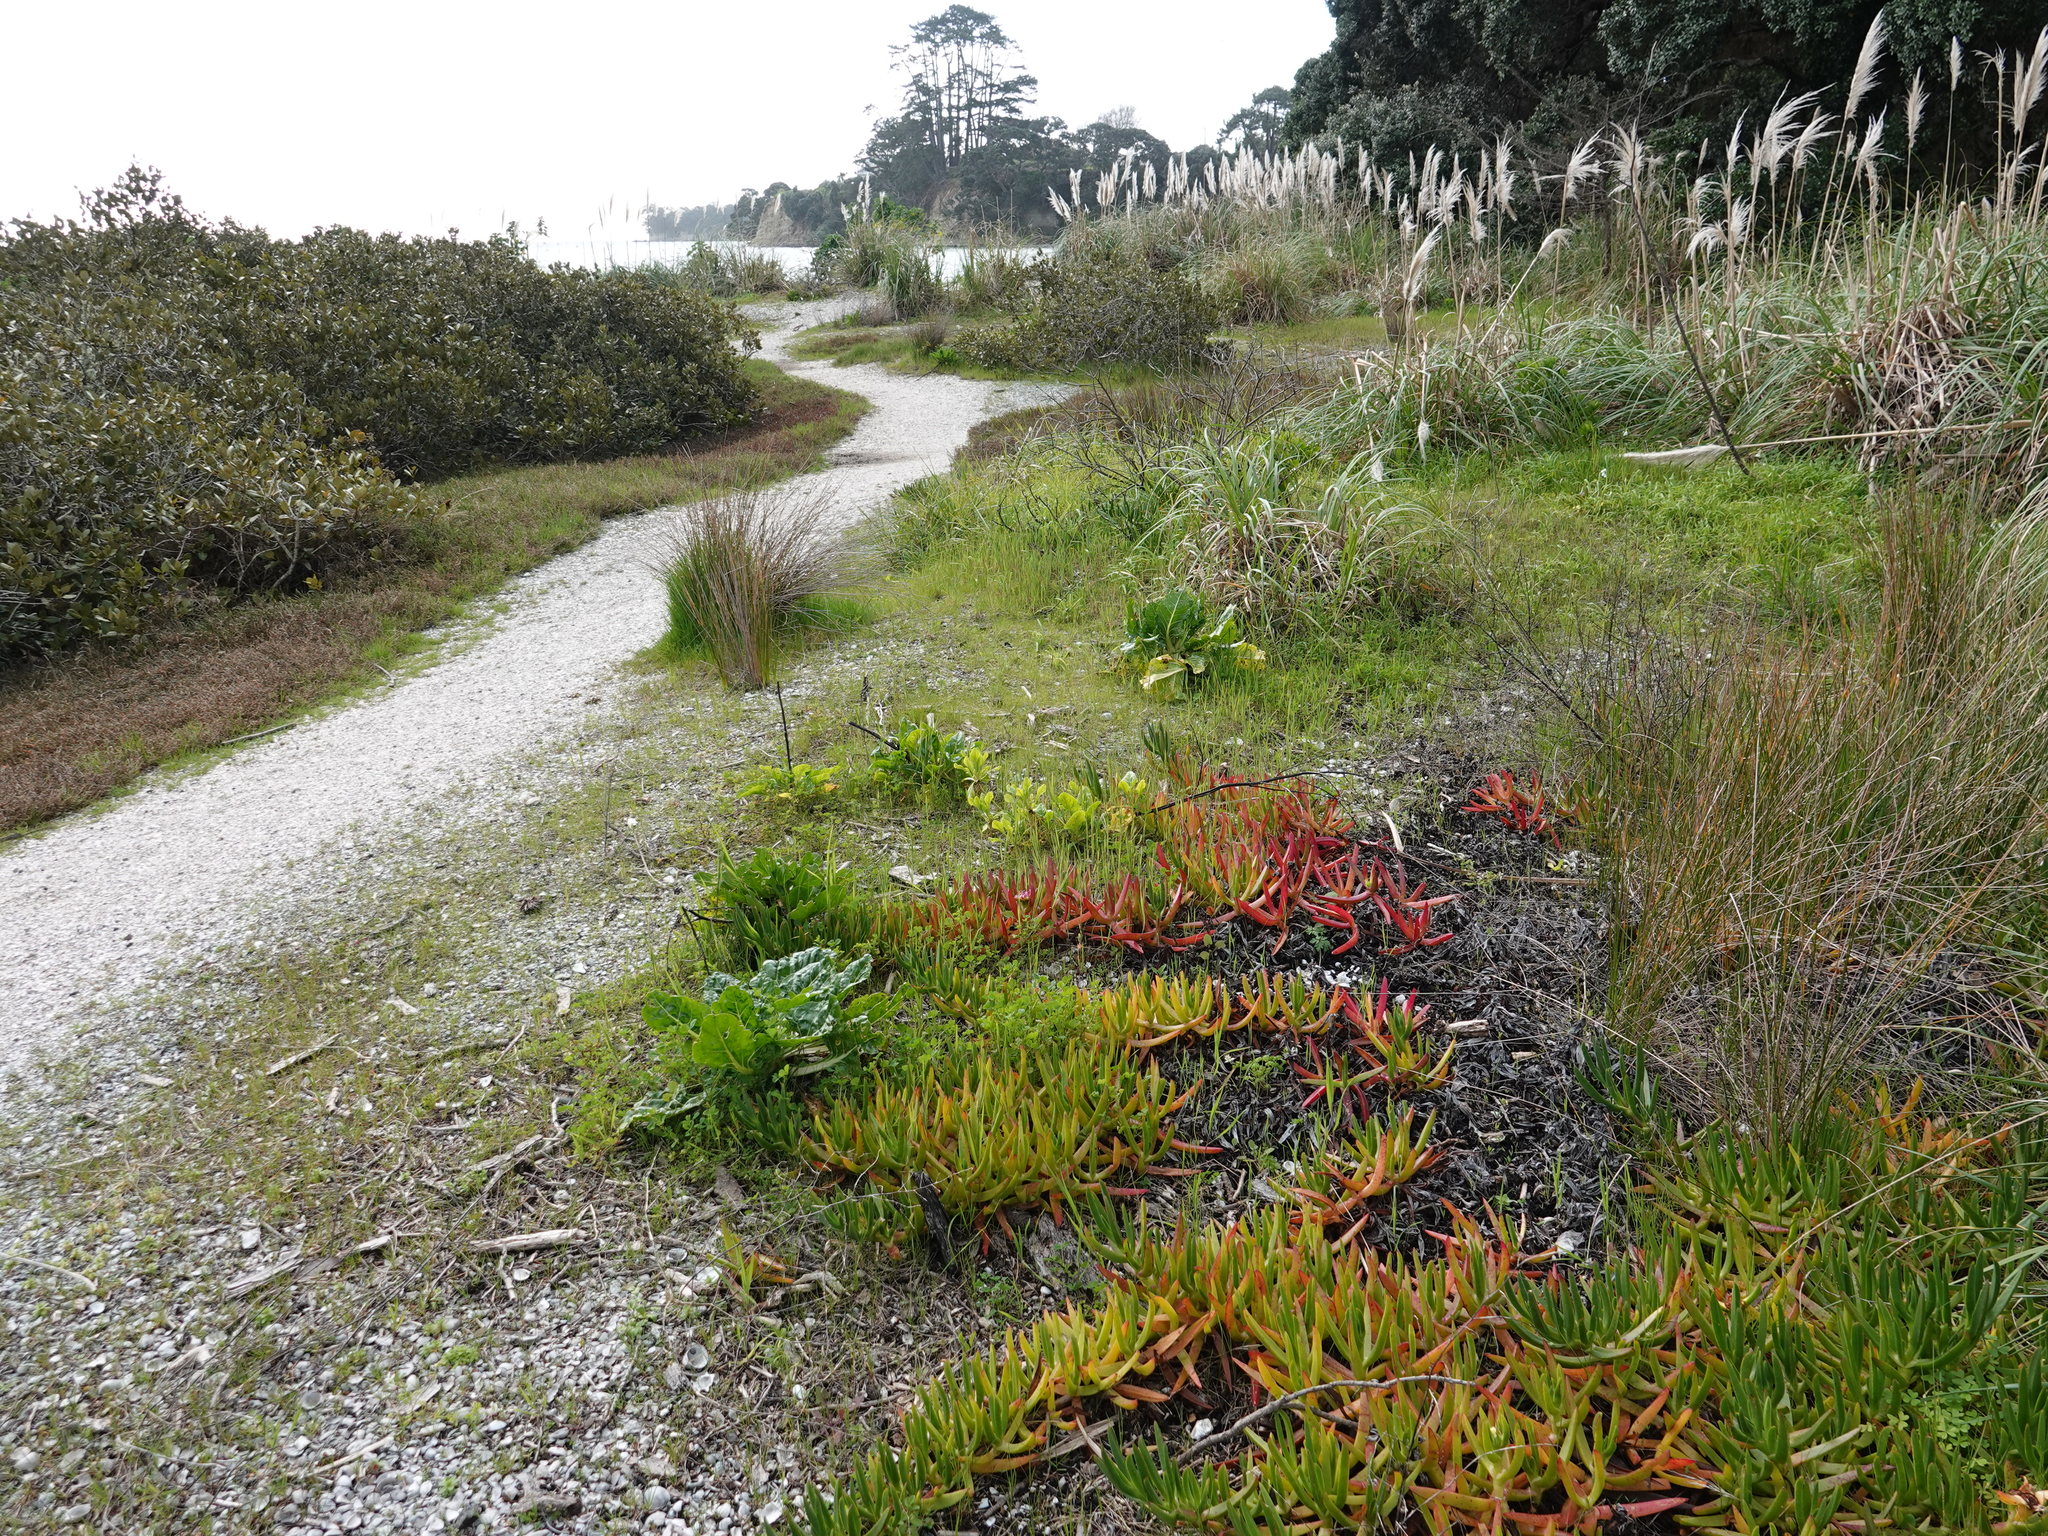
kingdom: Plantae
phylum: Tracheophyta
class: Magnoliopsida
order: Caryophyllales
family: Amaranthaceae
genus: Beta
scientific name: Beta vulgaris
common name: Beet
